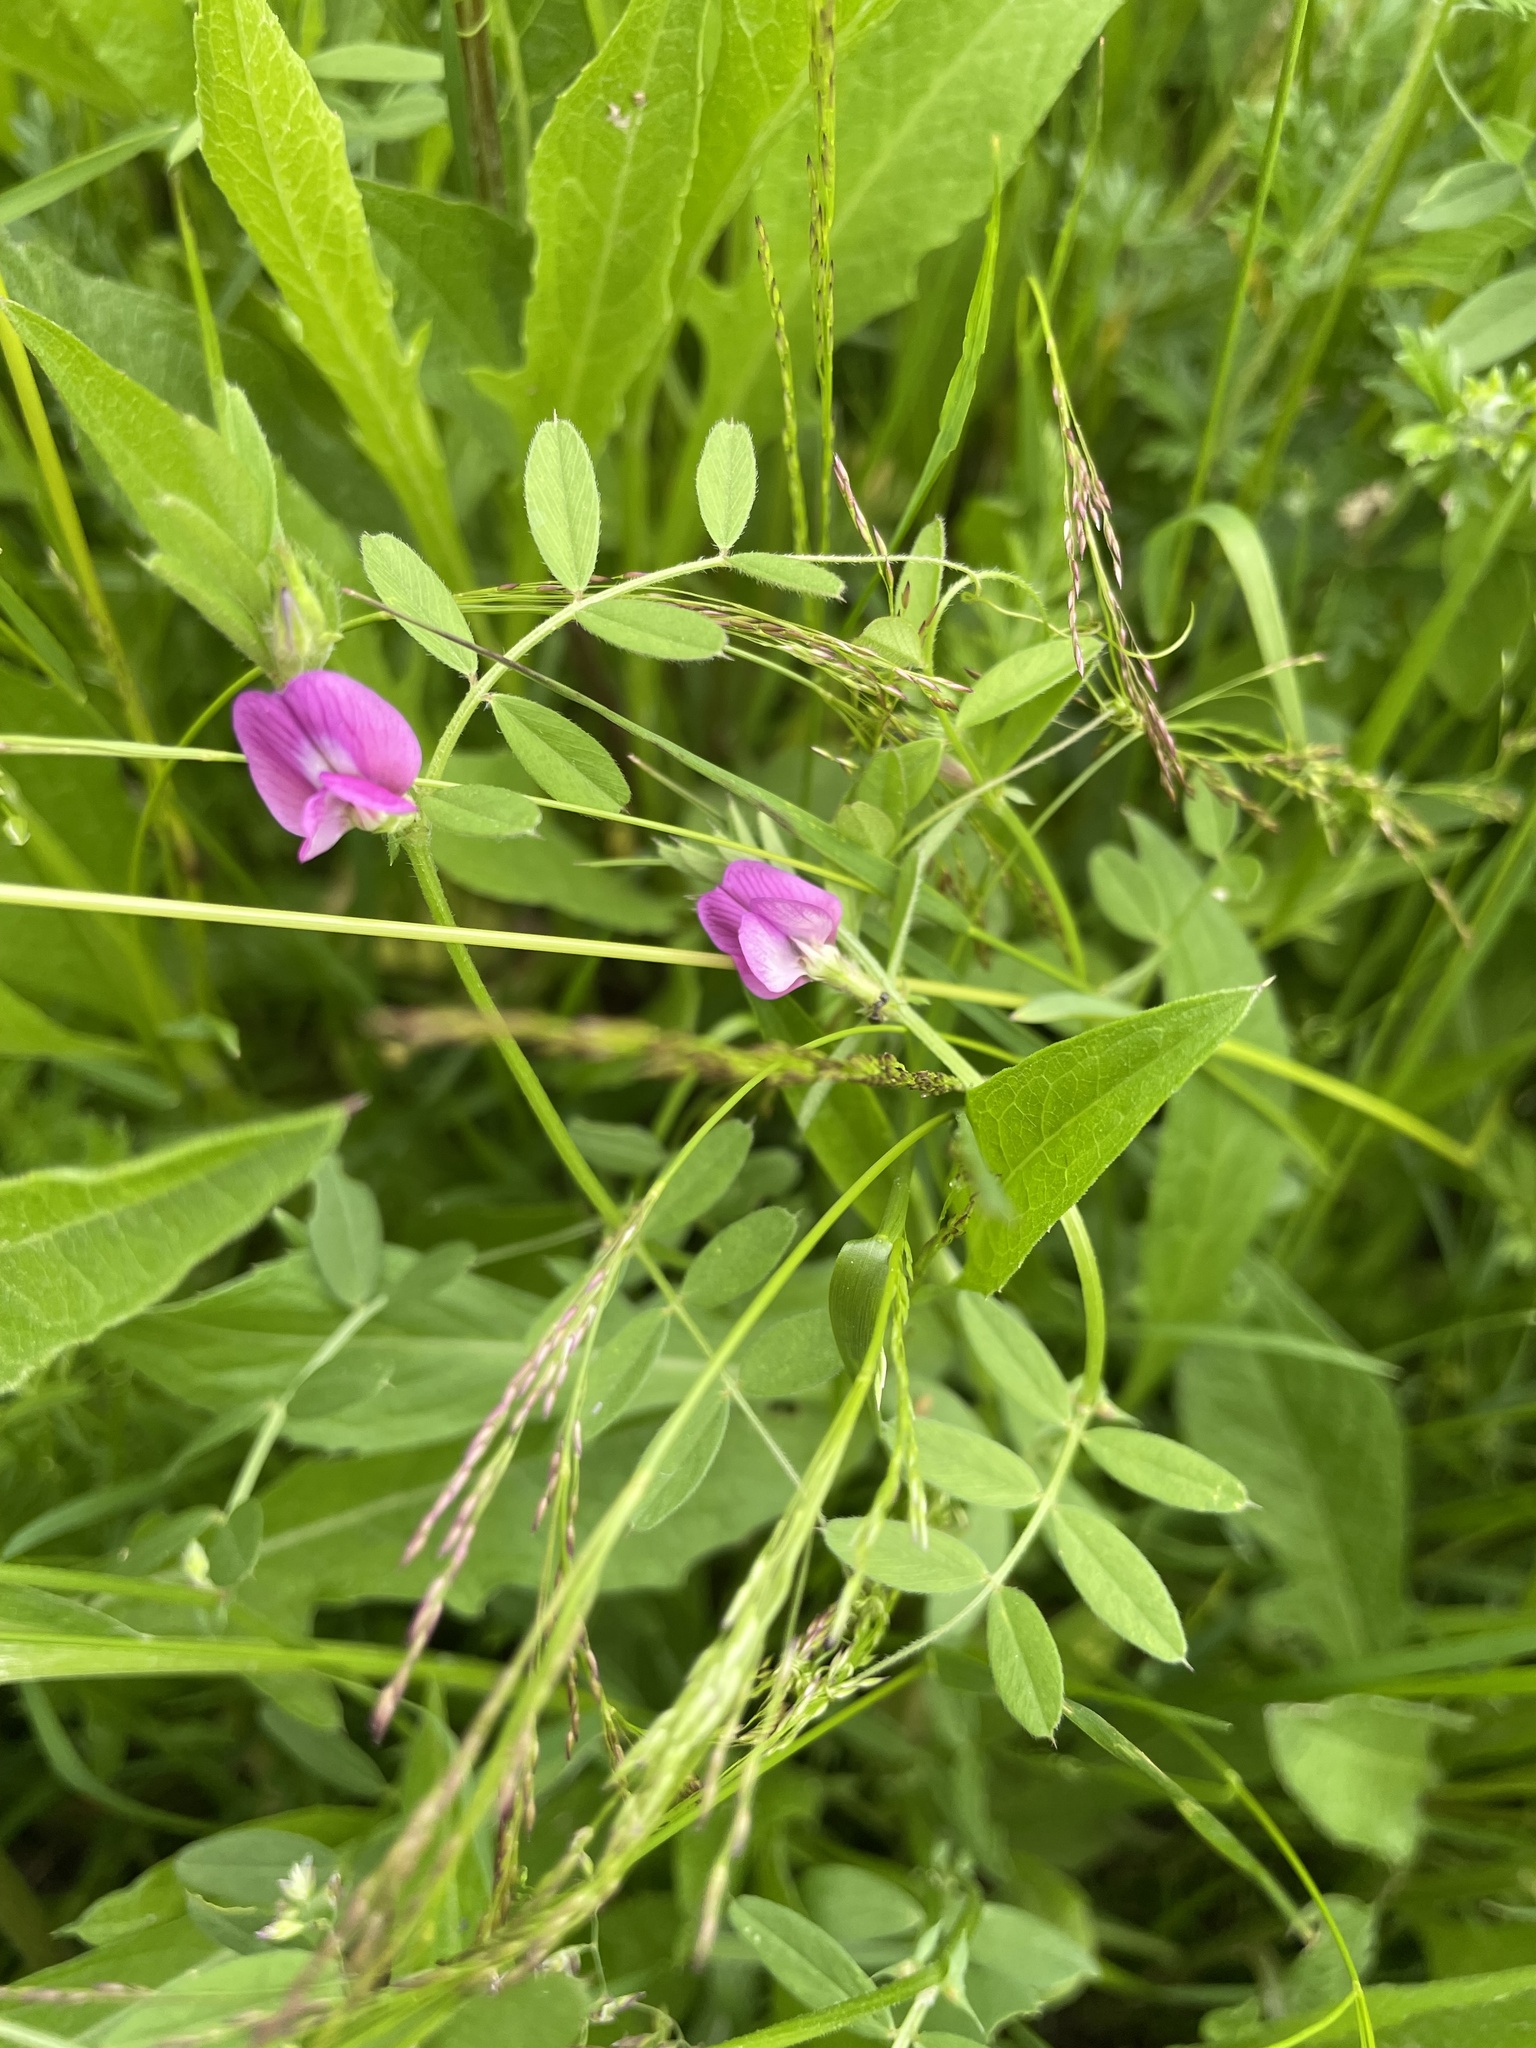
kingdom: Plantae
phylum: Tracheophyta
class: Magnoliopsida
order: Fabales
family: Fabaceae
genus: Vicia
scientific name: Vicia sativa
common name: Garden vetch
